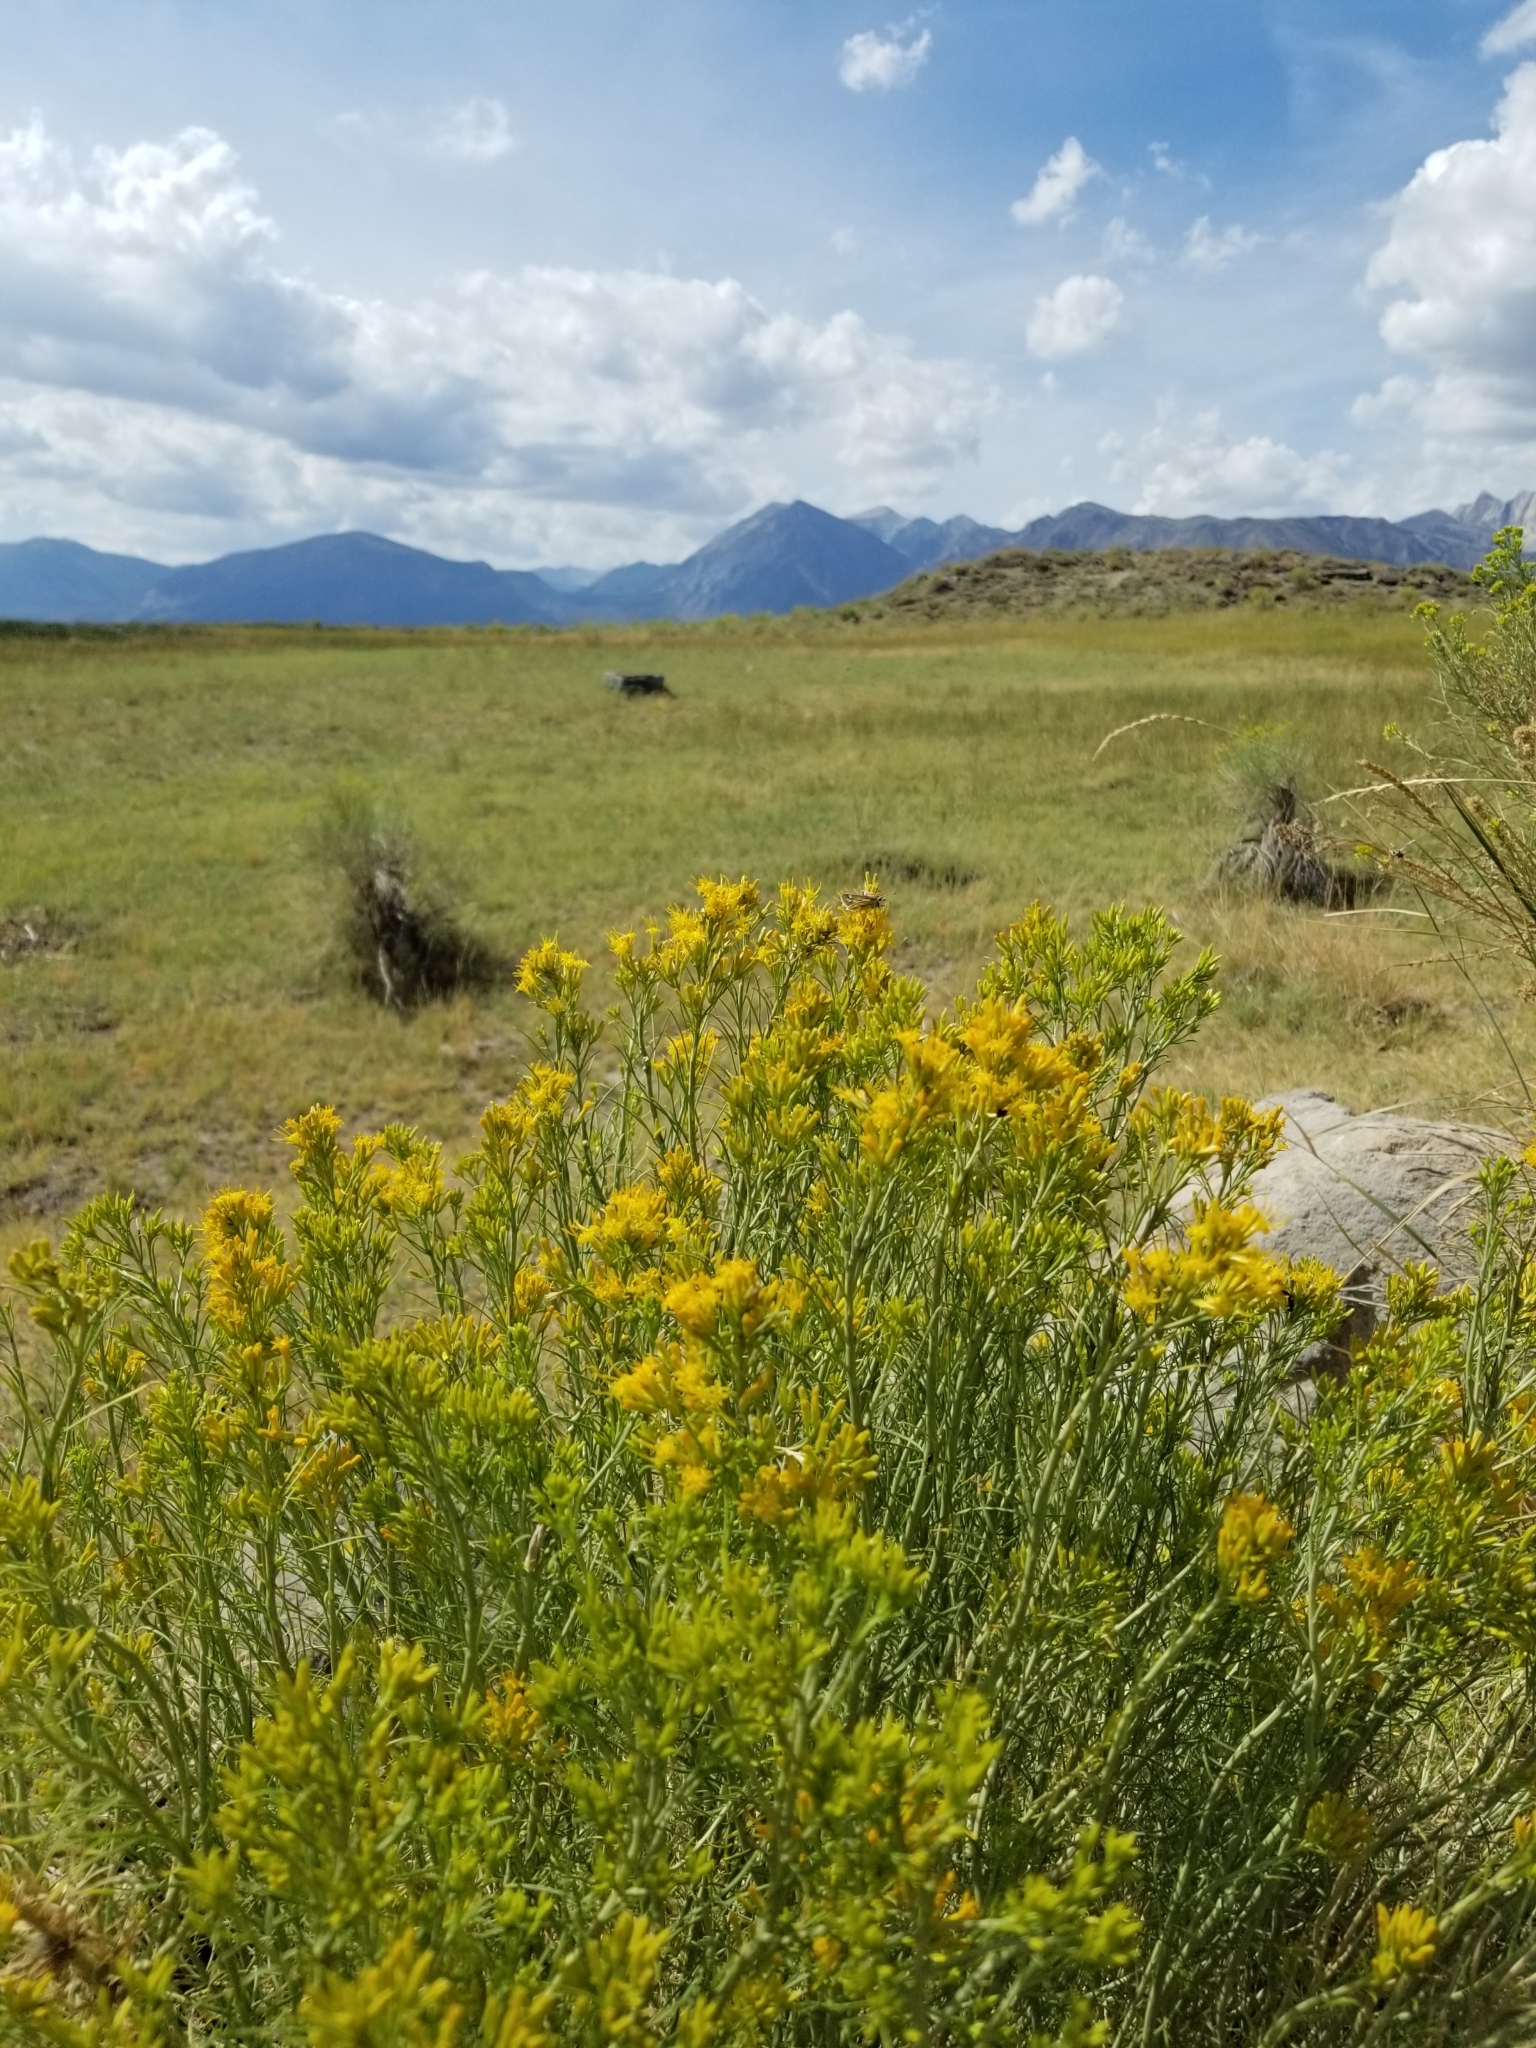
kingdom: Plantae
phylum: Tracheophyta
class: Magnoliopsida
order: Asterales
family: Asteraceae
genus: Chrysothamnus
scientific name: Chrysothamnus viscidiflorus
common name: Yellow rabbitbrush
